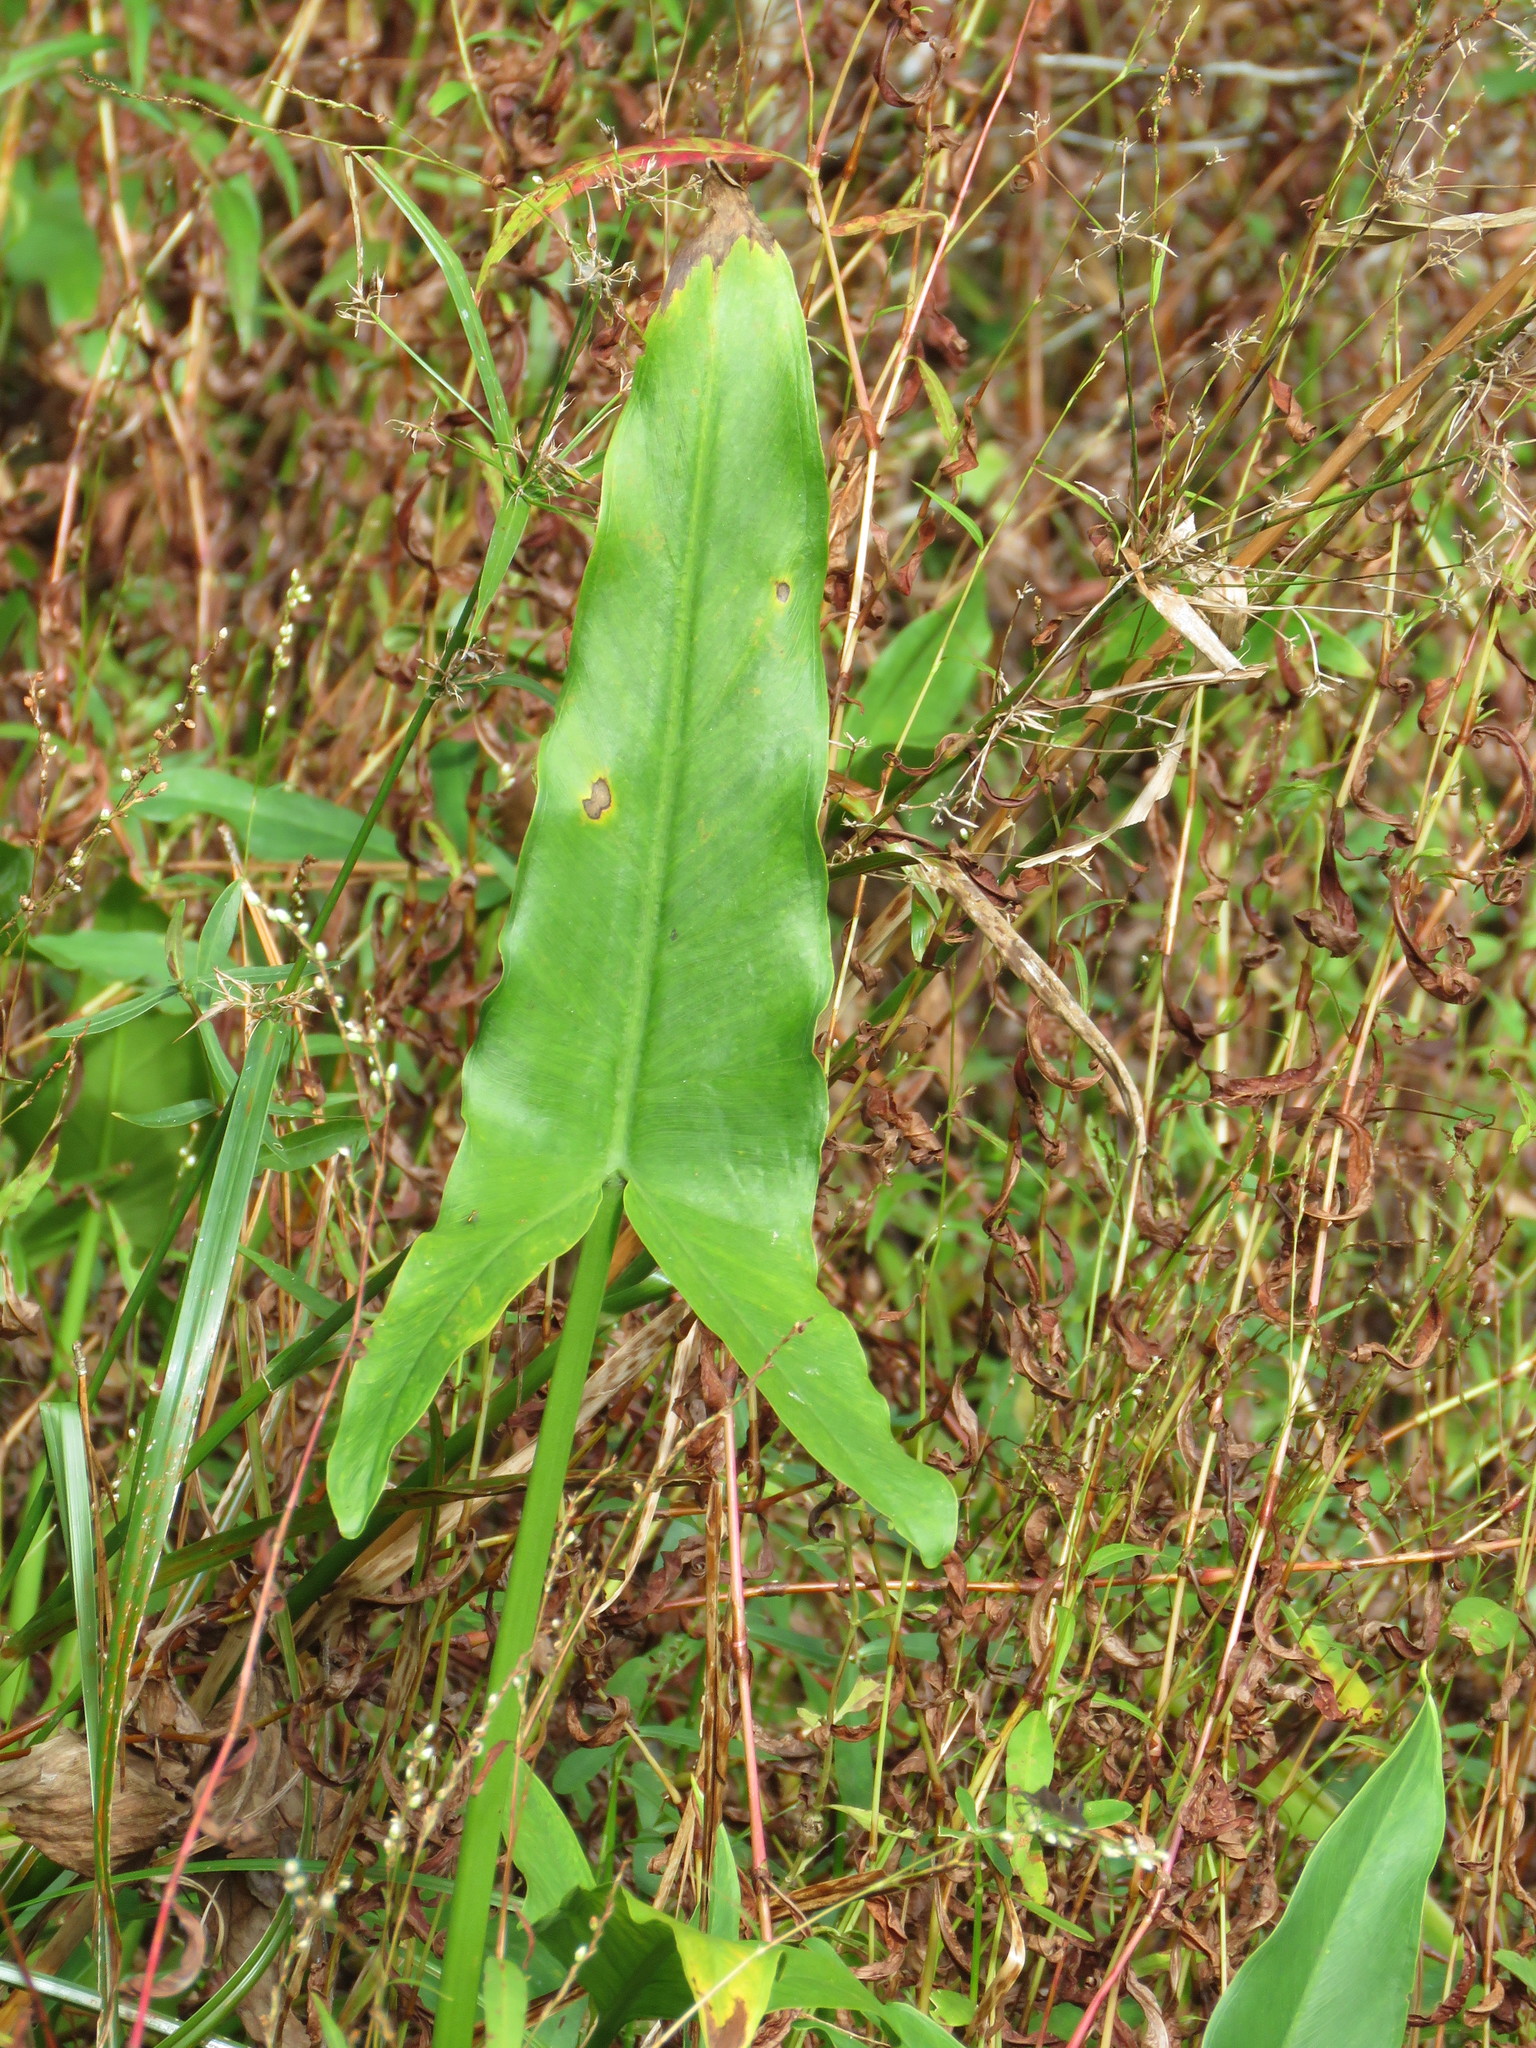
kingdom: Plantae
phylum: Tracheophyta
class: Liliopsida
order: Alismatales
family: Araceae
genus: Peltandra
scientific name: Peltandra virginica
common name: Arrow arum
